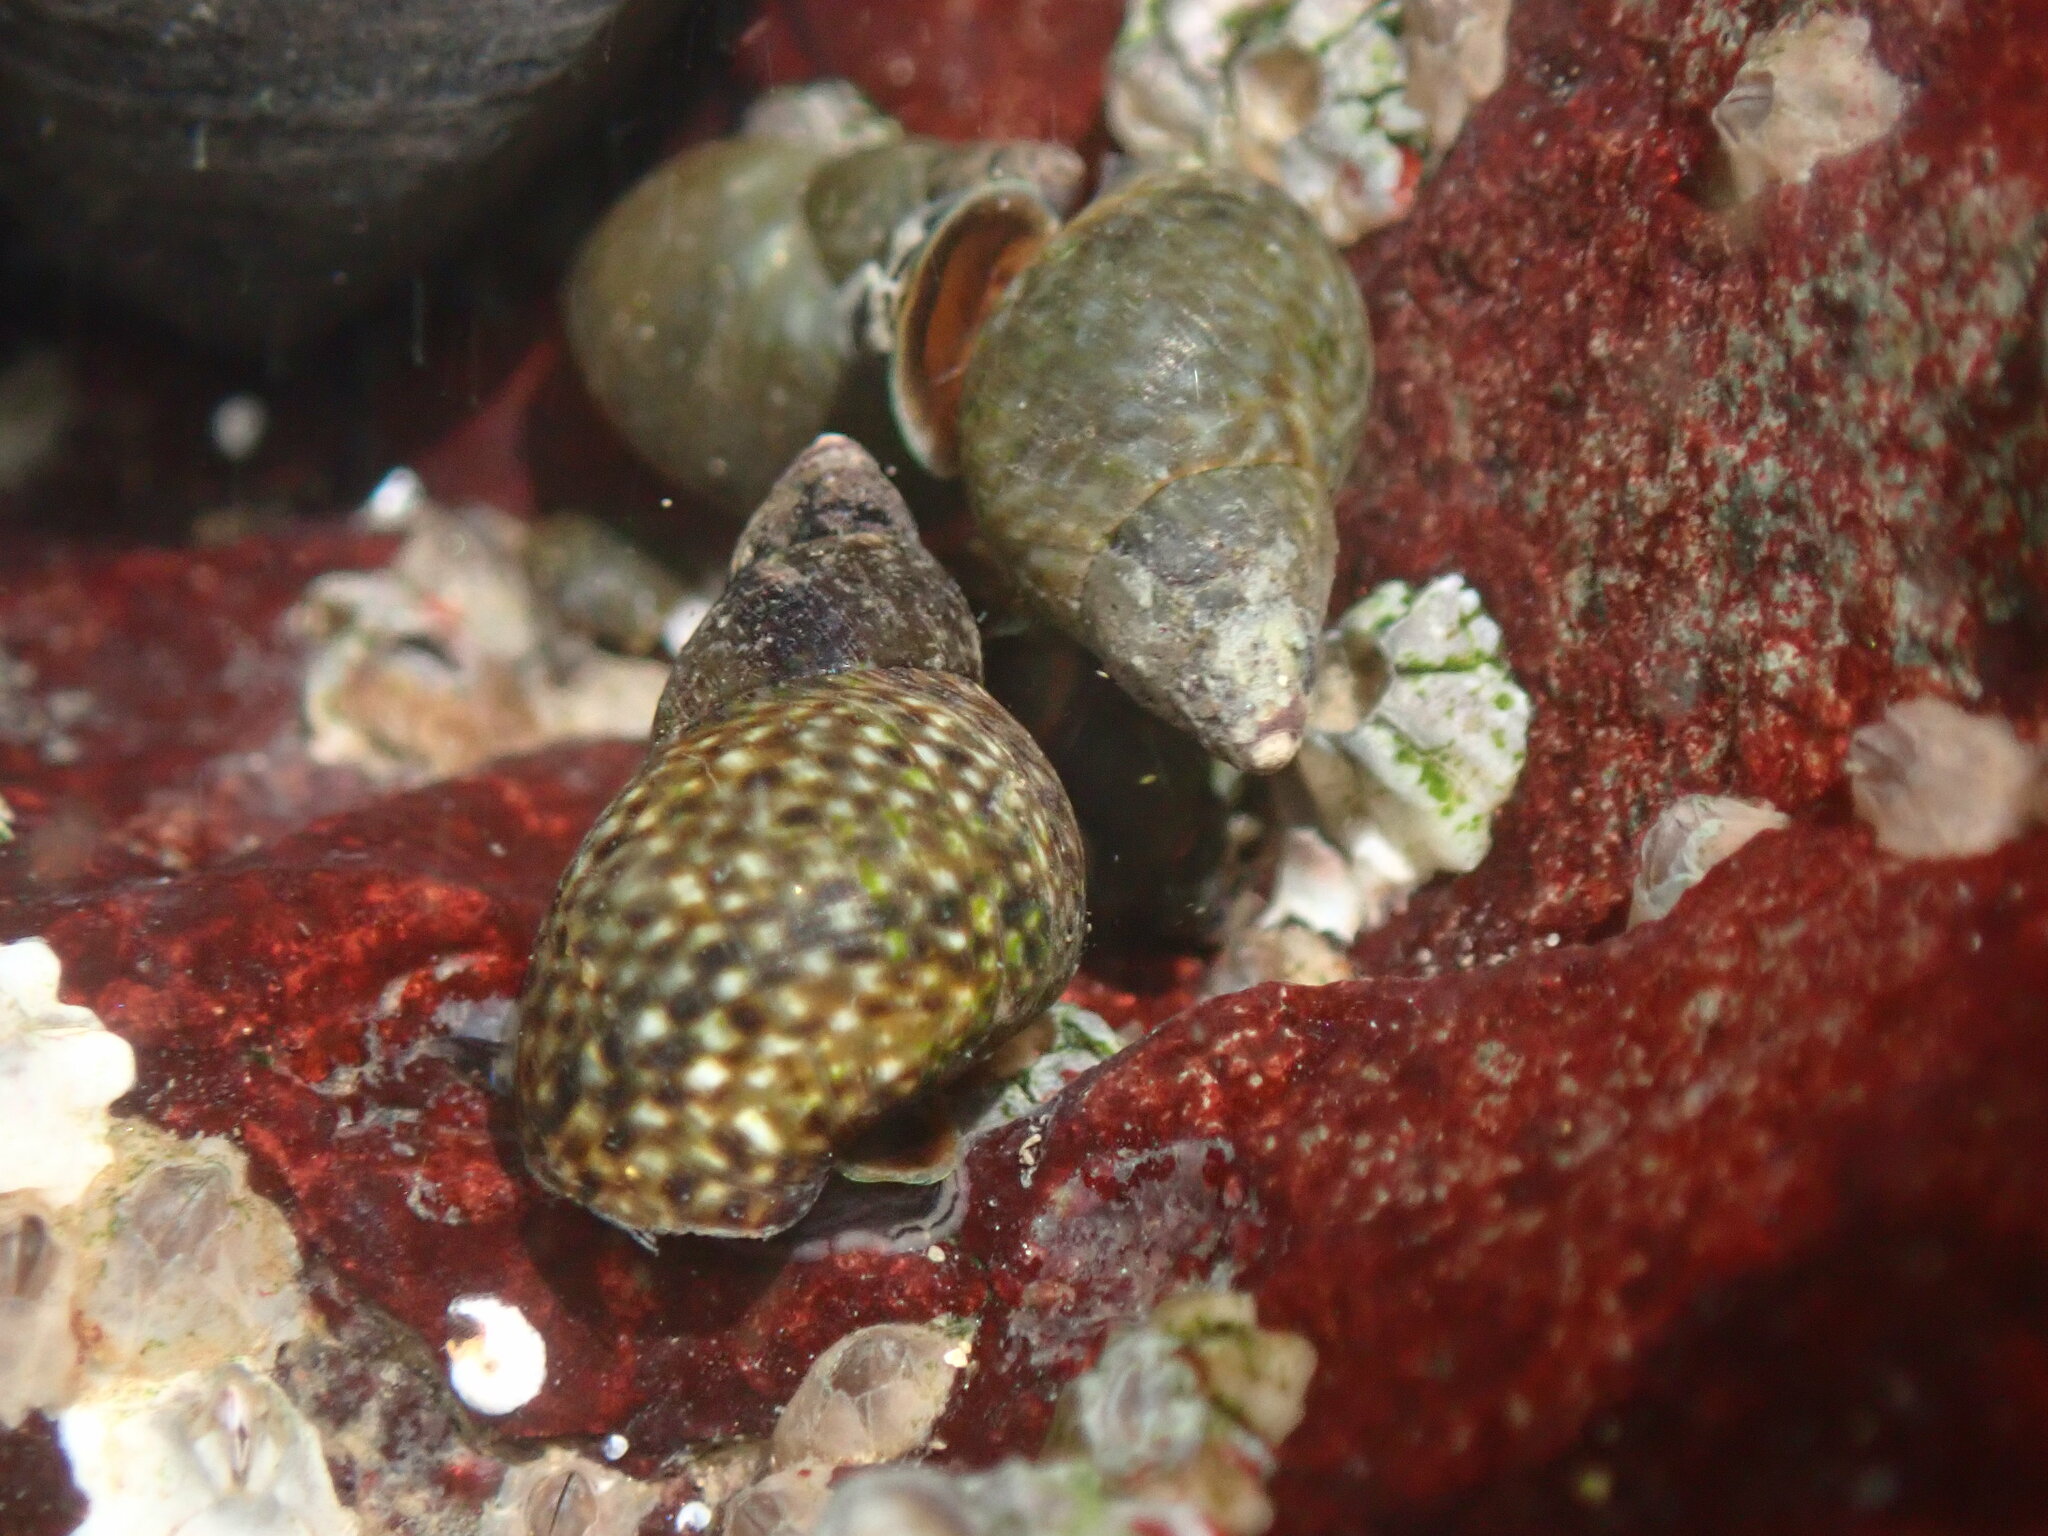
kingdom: Animalia
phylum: Mollusca
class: Gastropoda
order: Littorinimorpha
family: Littorinidae
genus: Littorina
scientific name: Littorina scutulata
